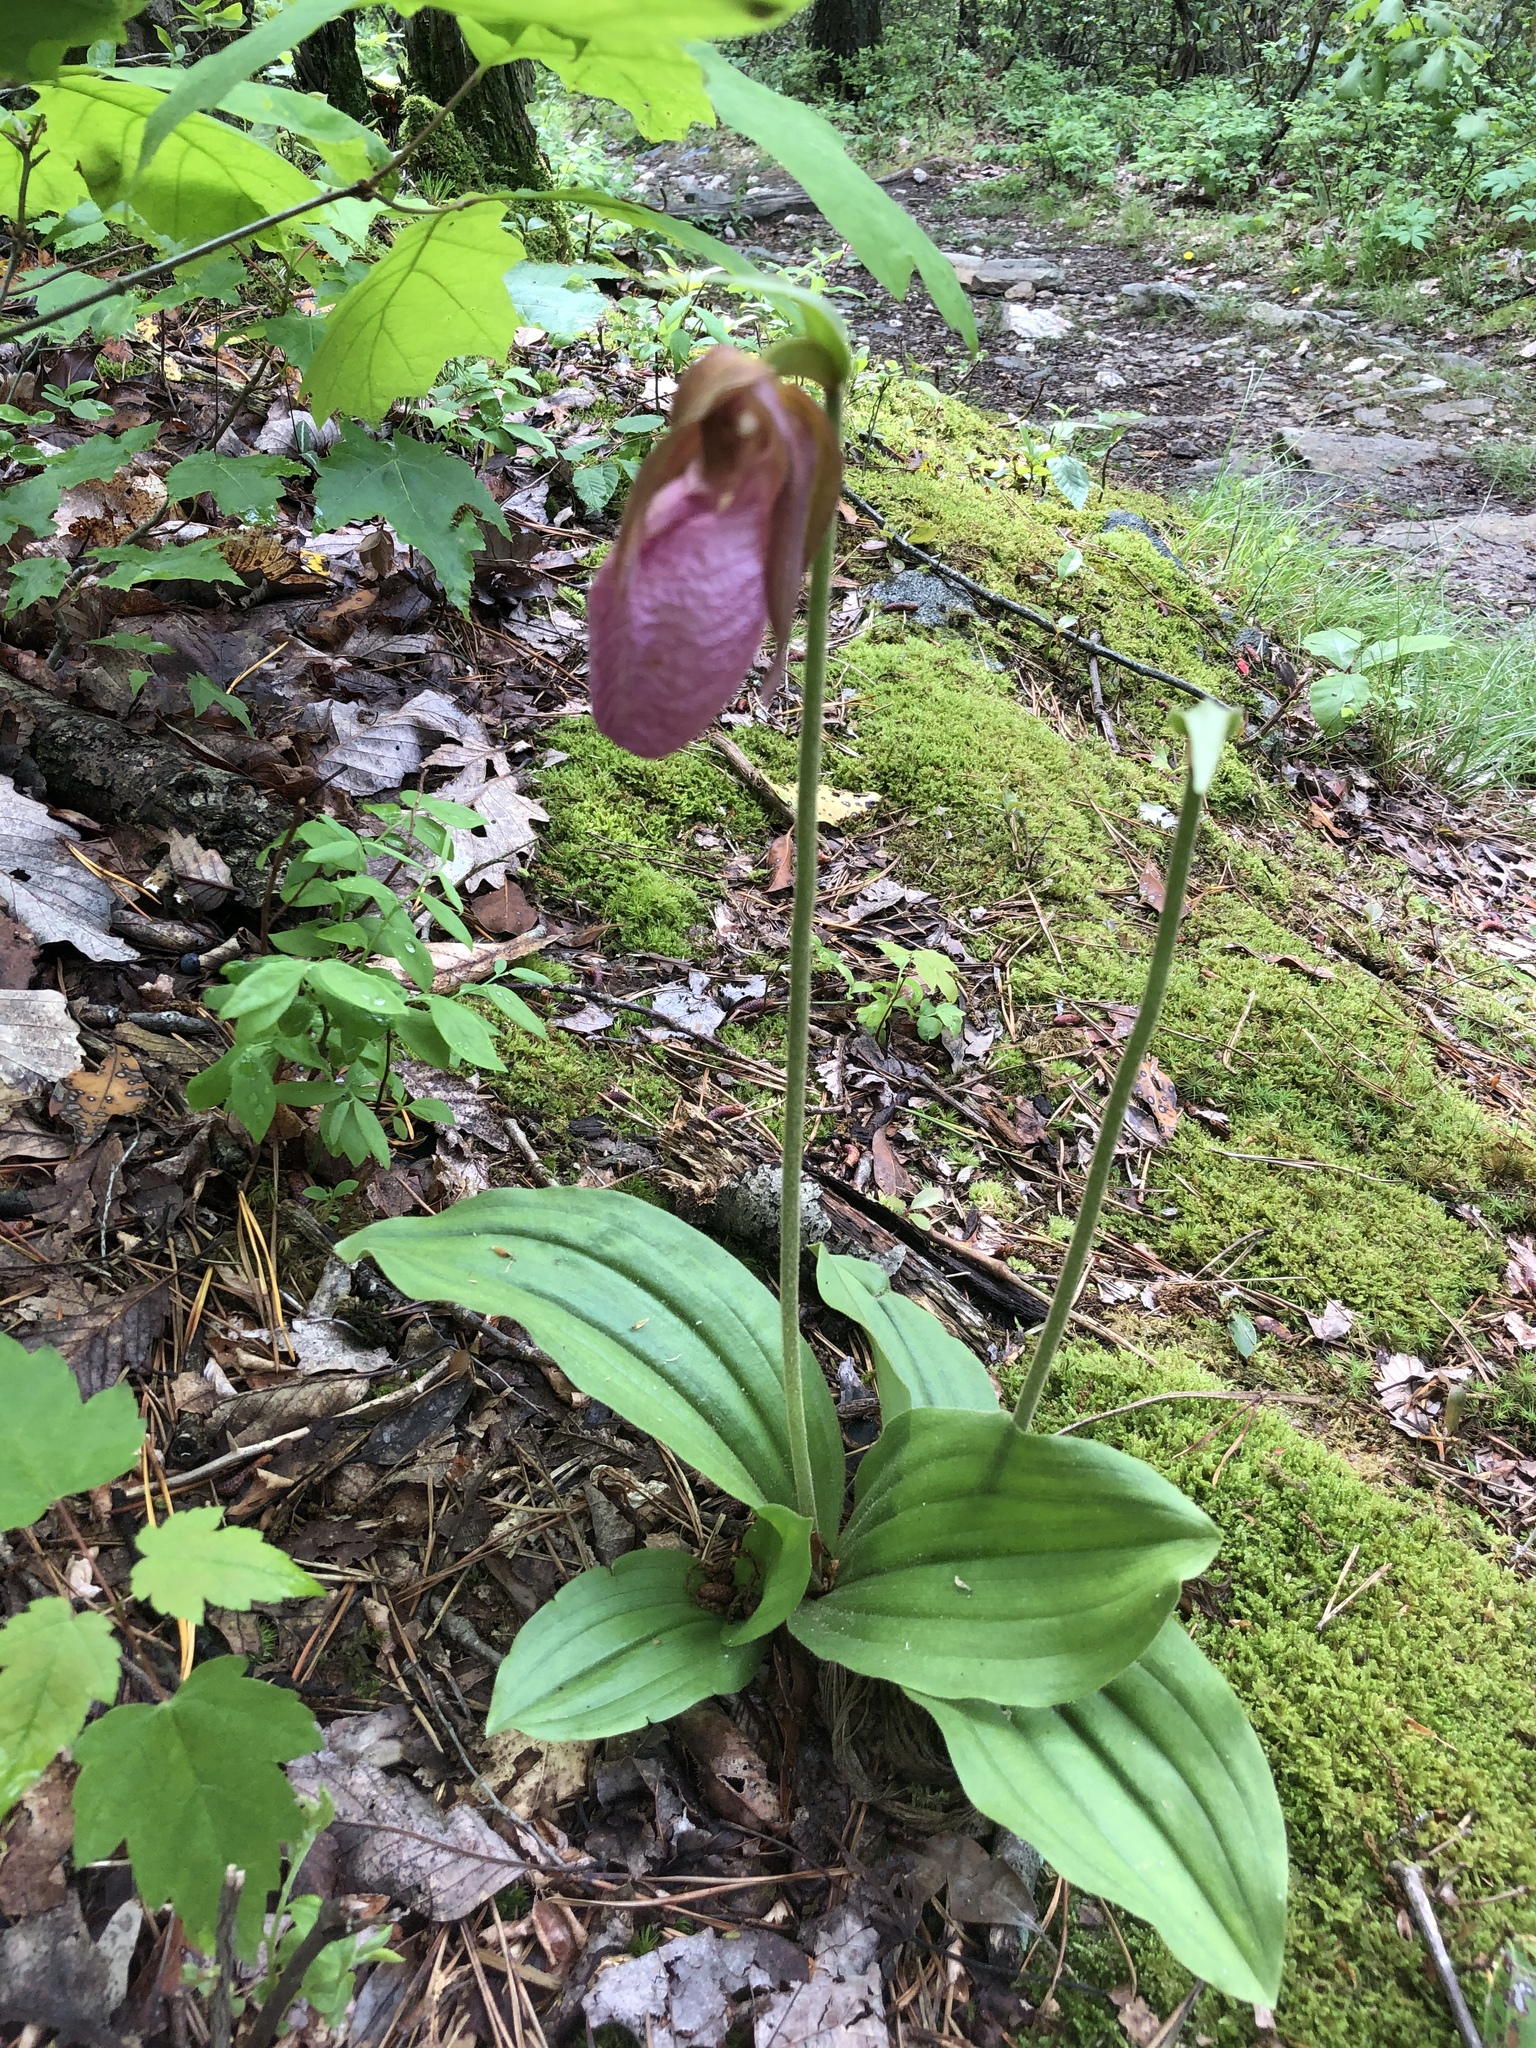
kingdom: Plantae
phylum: Tracheophyta
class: Liliopsida
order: Asparagales
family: Orchidaceae
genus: Cypripedium
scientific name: Cypripedium acaule
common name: Pink lady's-slipper
